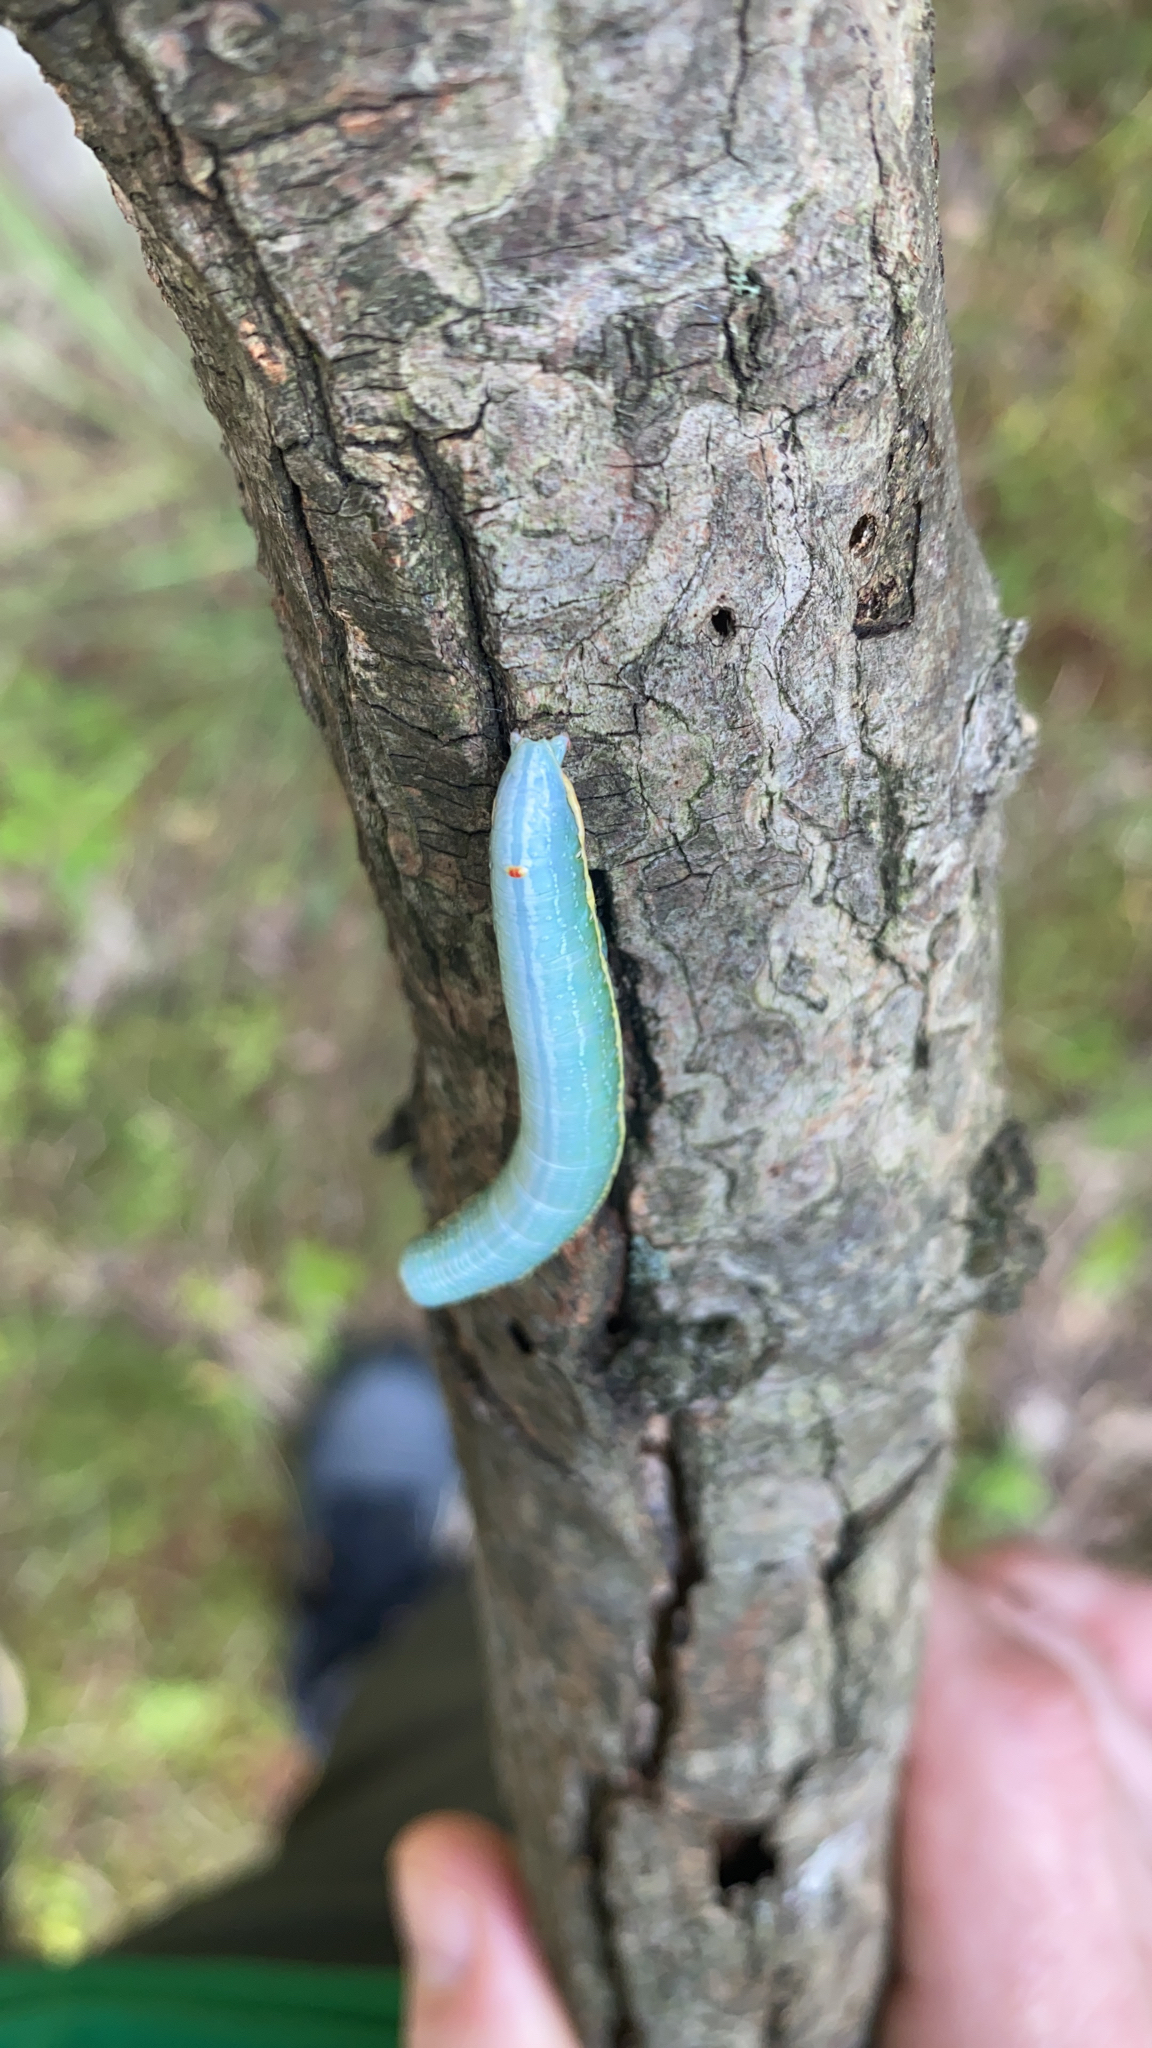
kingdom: Animalia
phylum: Arthropoda
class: Insecta
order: Lepidoptera
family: Notodontidae
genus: Paraeschra
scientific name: Paraeschra georgica
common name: Georgian prominent
